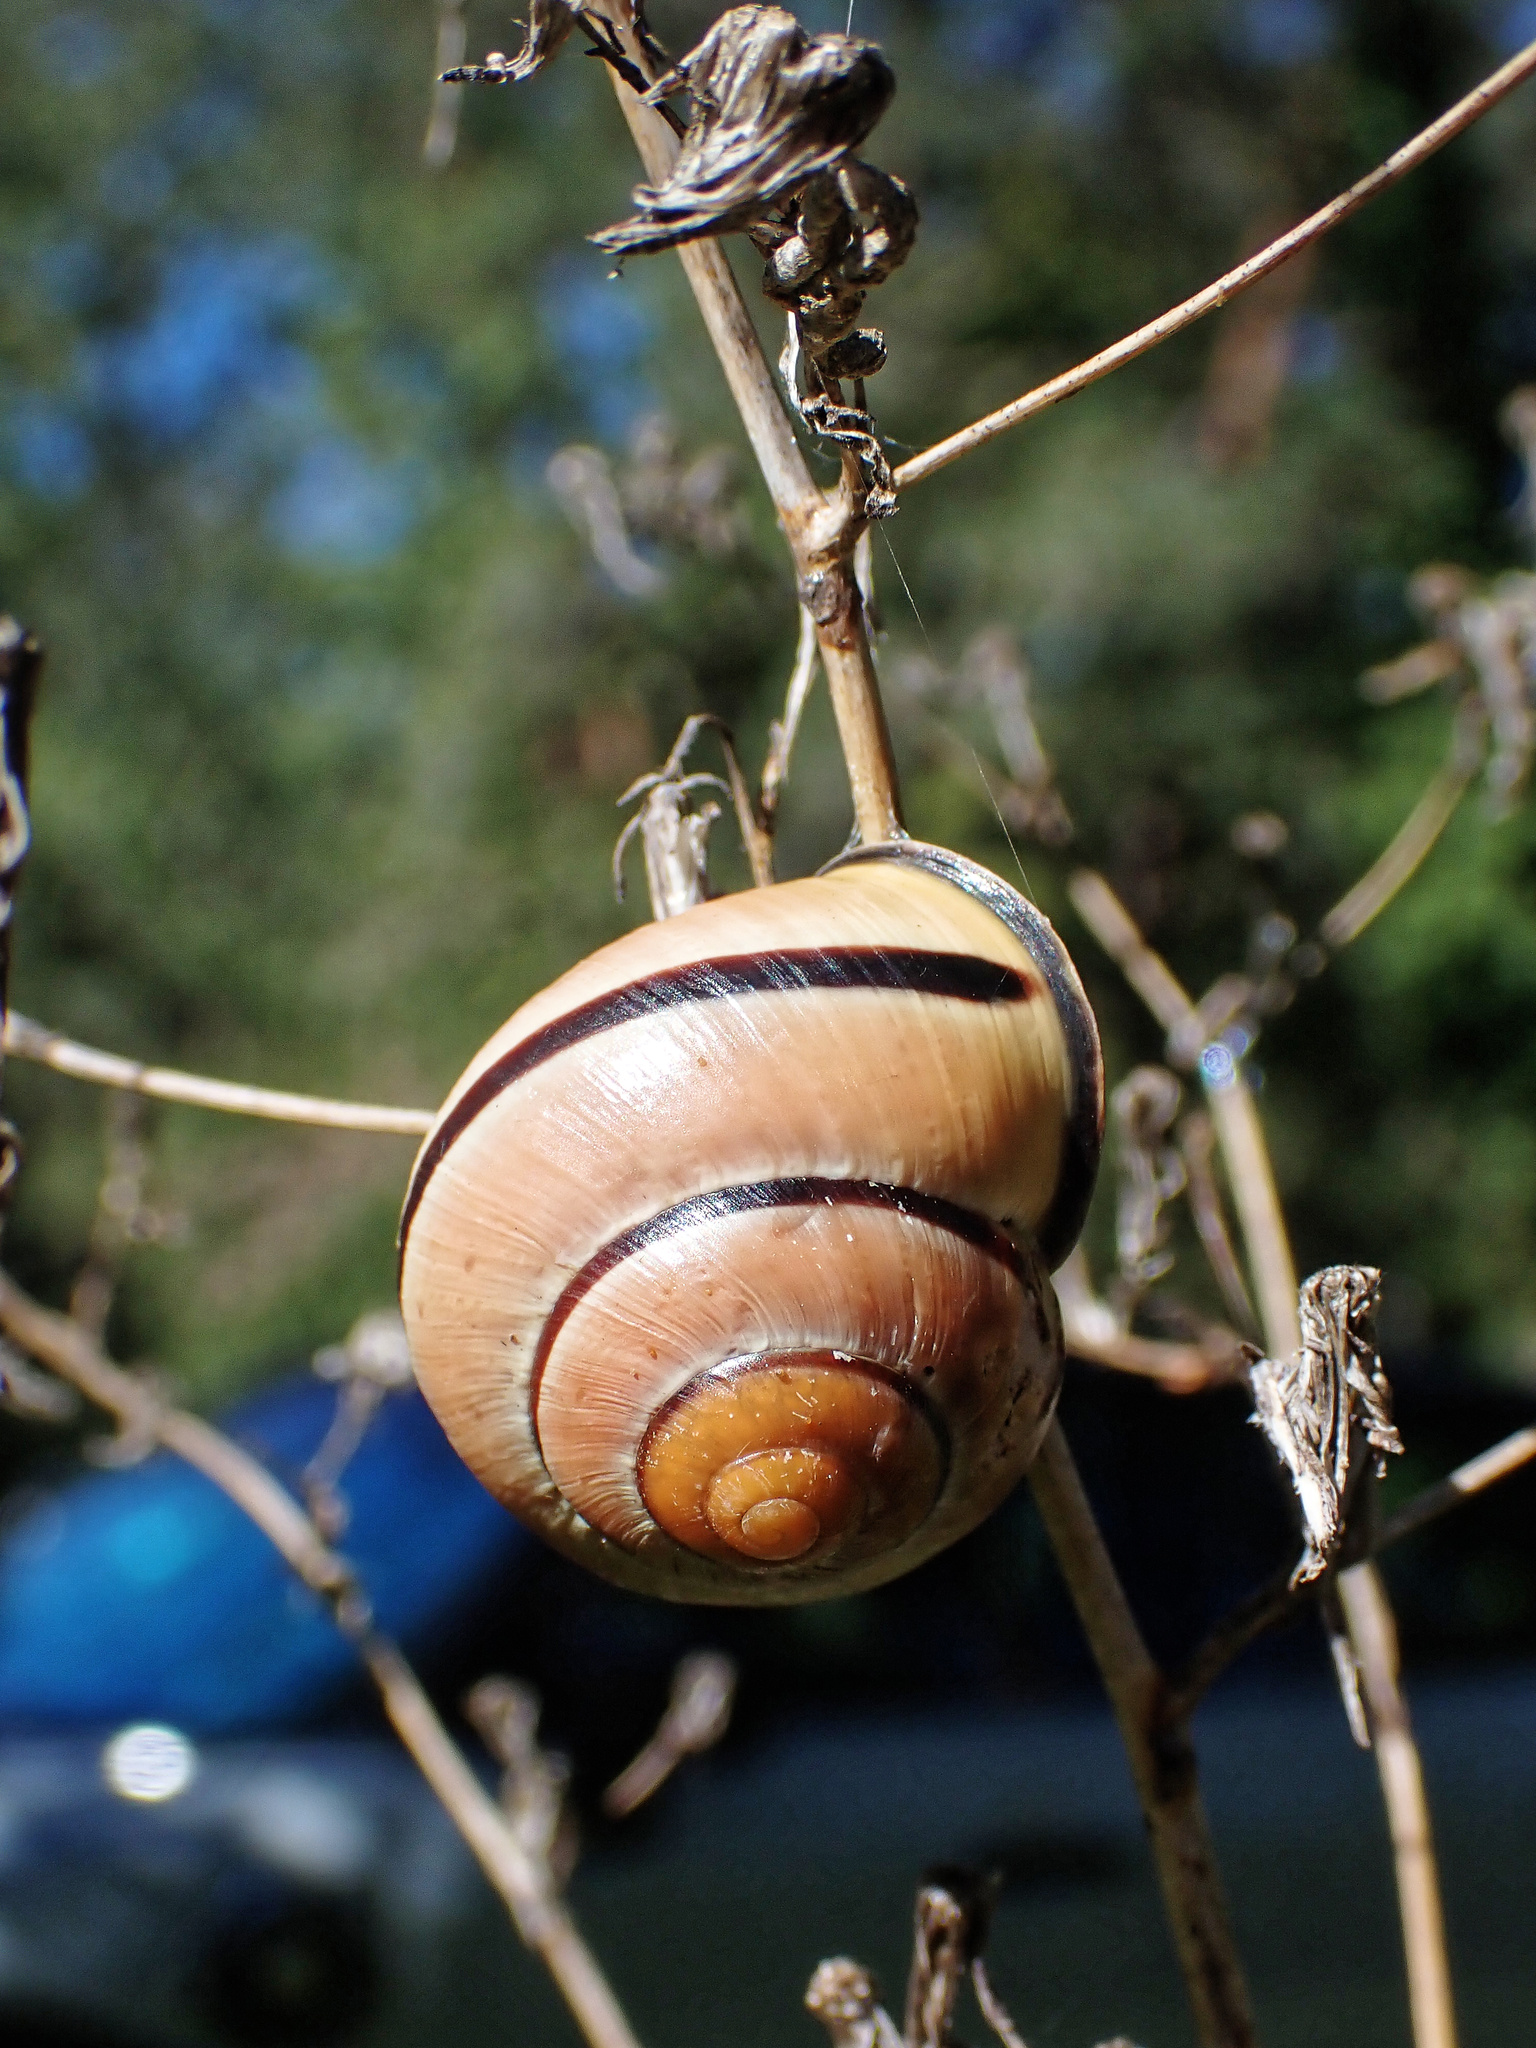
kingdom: Animalia
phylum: Mollusca
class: Gastropoda
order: Stylommatophora
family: Helicidae
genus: Cepaea
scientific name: Cepaea nemoralis
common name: Grovesnail
